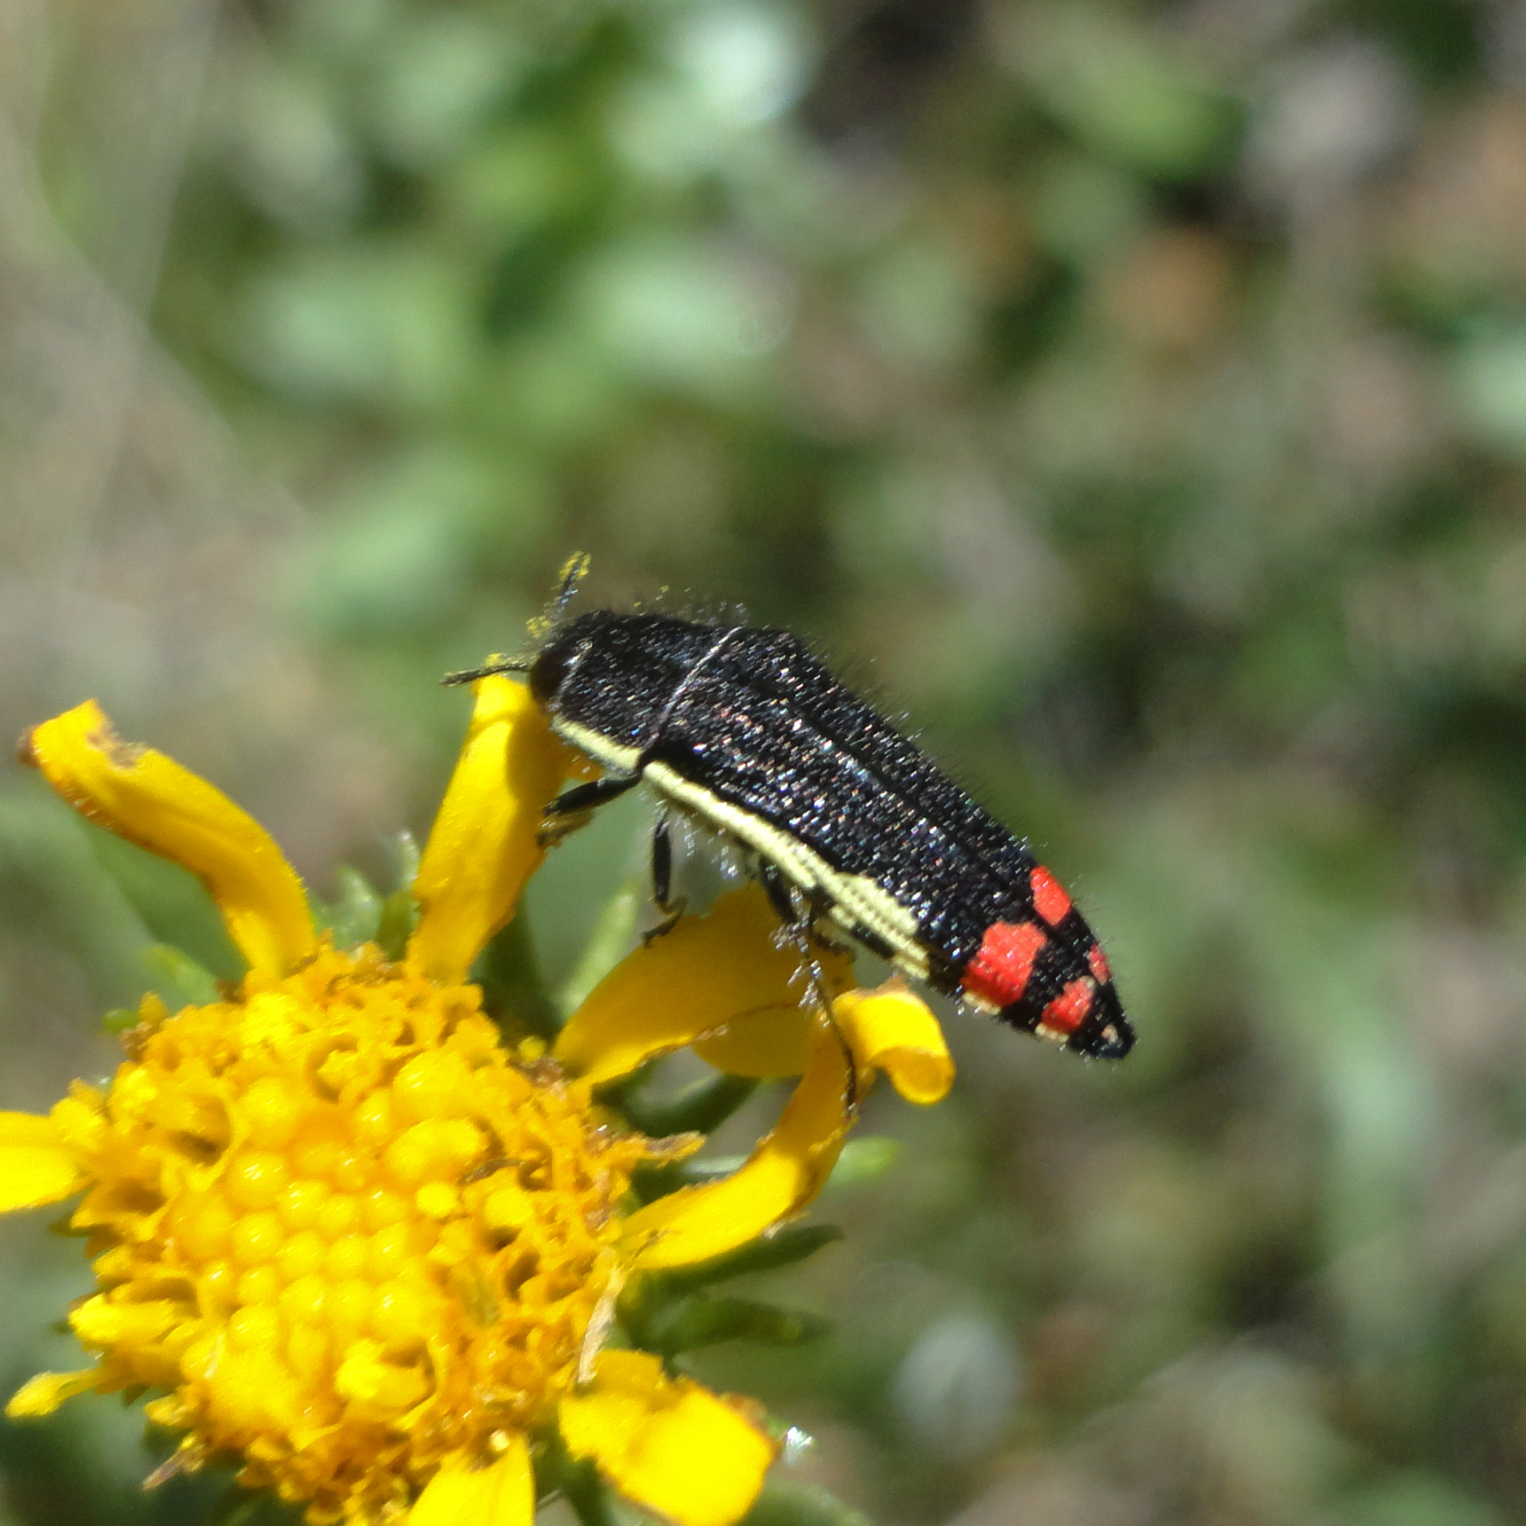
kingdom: Animalia
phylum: Arthropoda
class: Insecta
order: Coleoptera
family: Buprestidae
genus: Acmaeodera
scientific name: Acmaeodera flavomarginata
